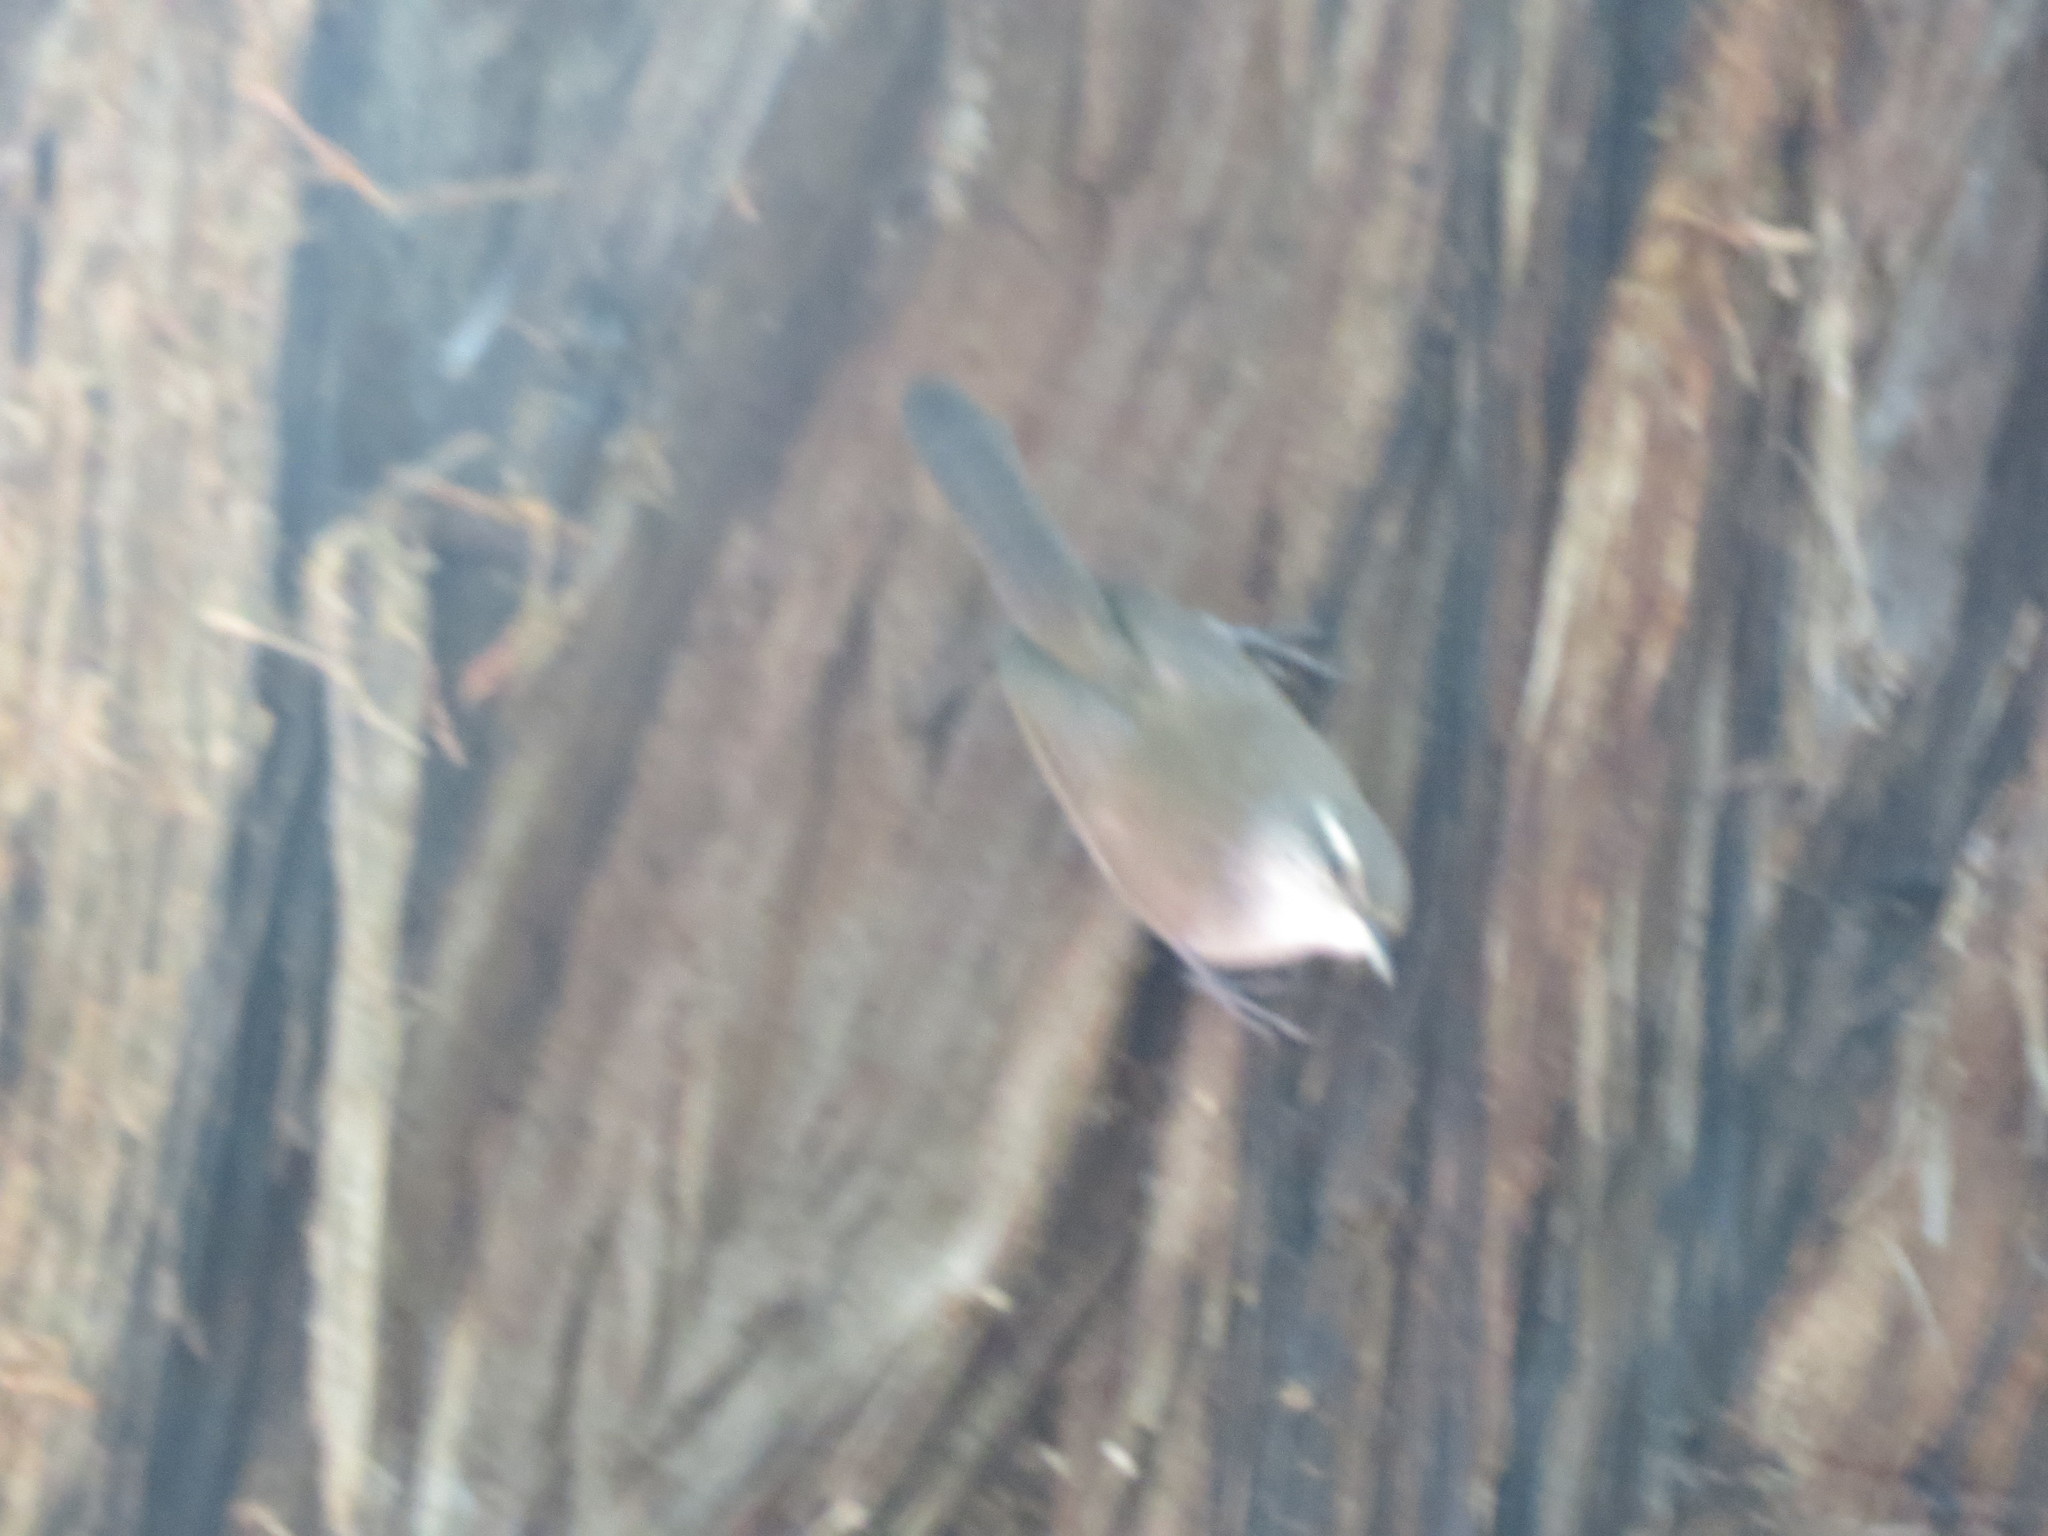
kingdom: Animalia
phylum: Chordata
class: Aves
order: Passeriformes
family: Troglodytidae
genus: Thryomanes
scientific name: Thryomanes bewickii
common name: Bewick's wren
